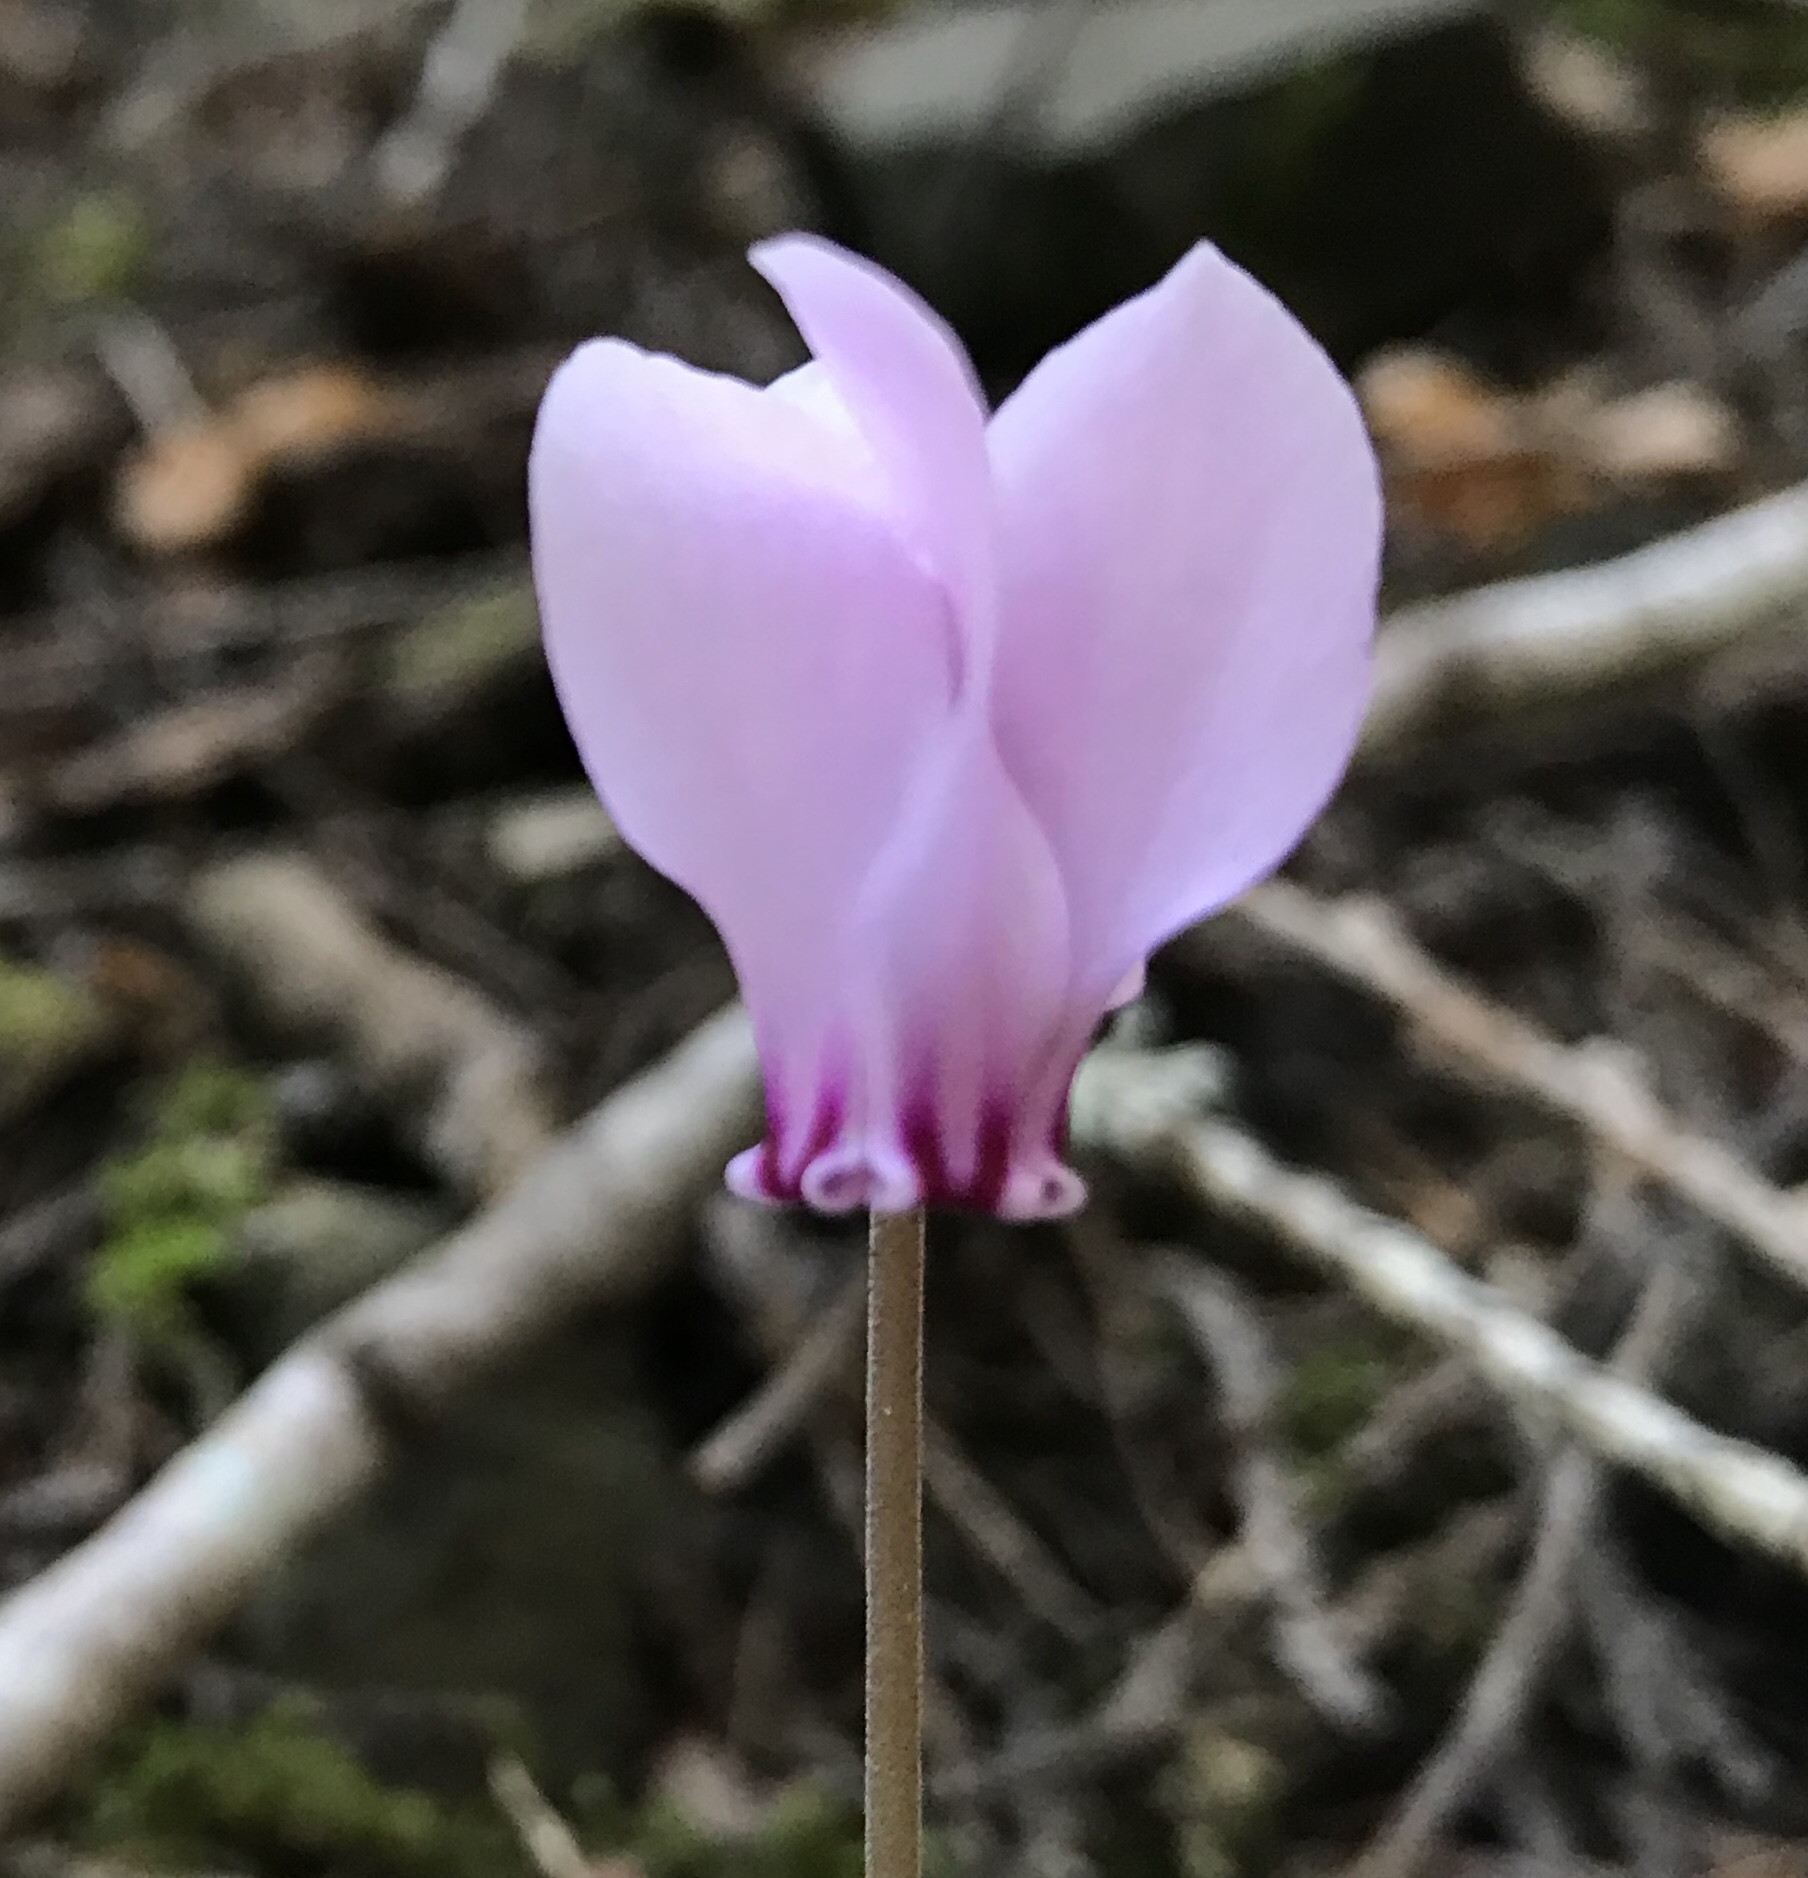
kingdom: Plantae
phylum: Tracheophyta
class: Magnoliopsida
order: Ericales
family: Primulaceae
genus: Cyclamen
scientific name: Cyclamen hederifolium
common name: Sowbread
